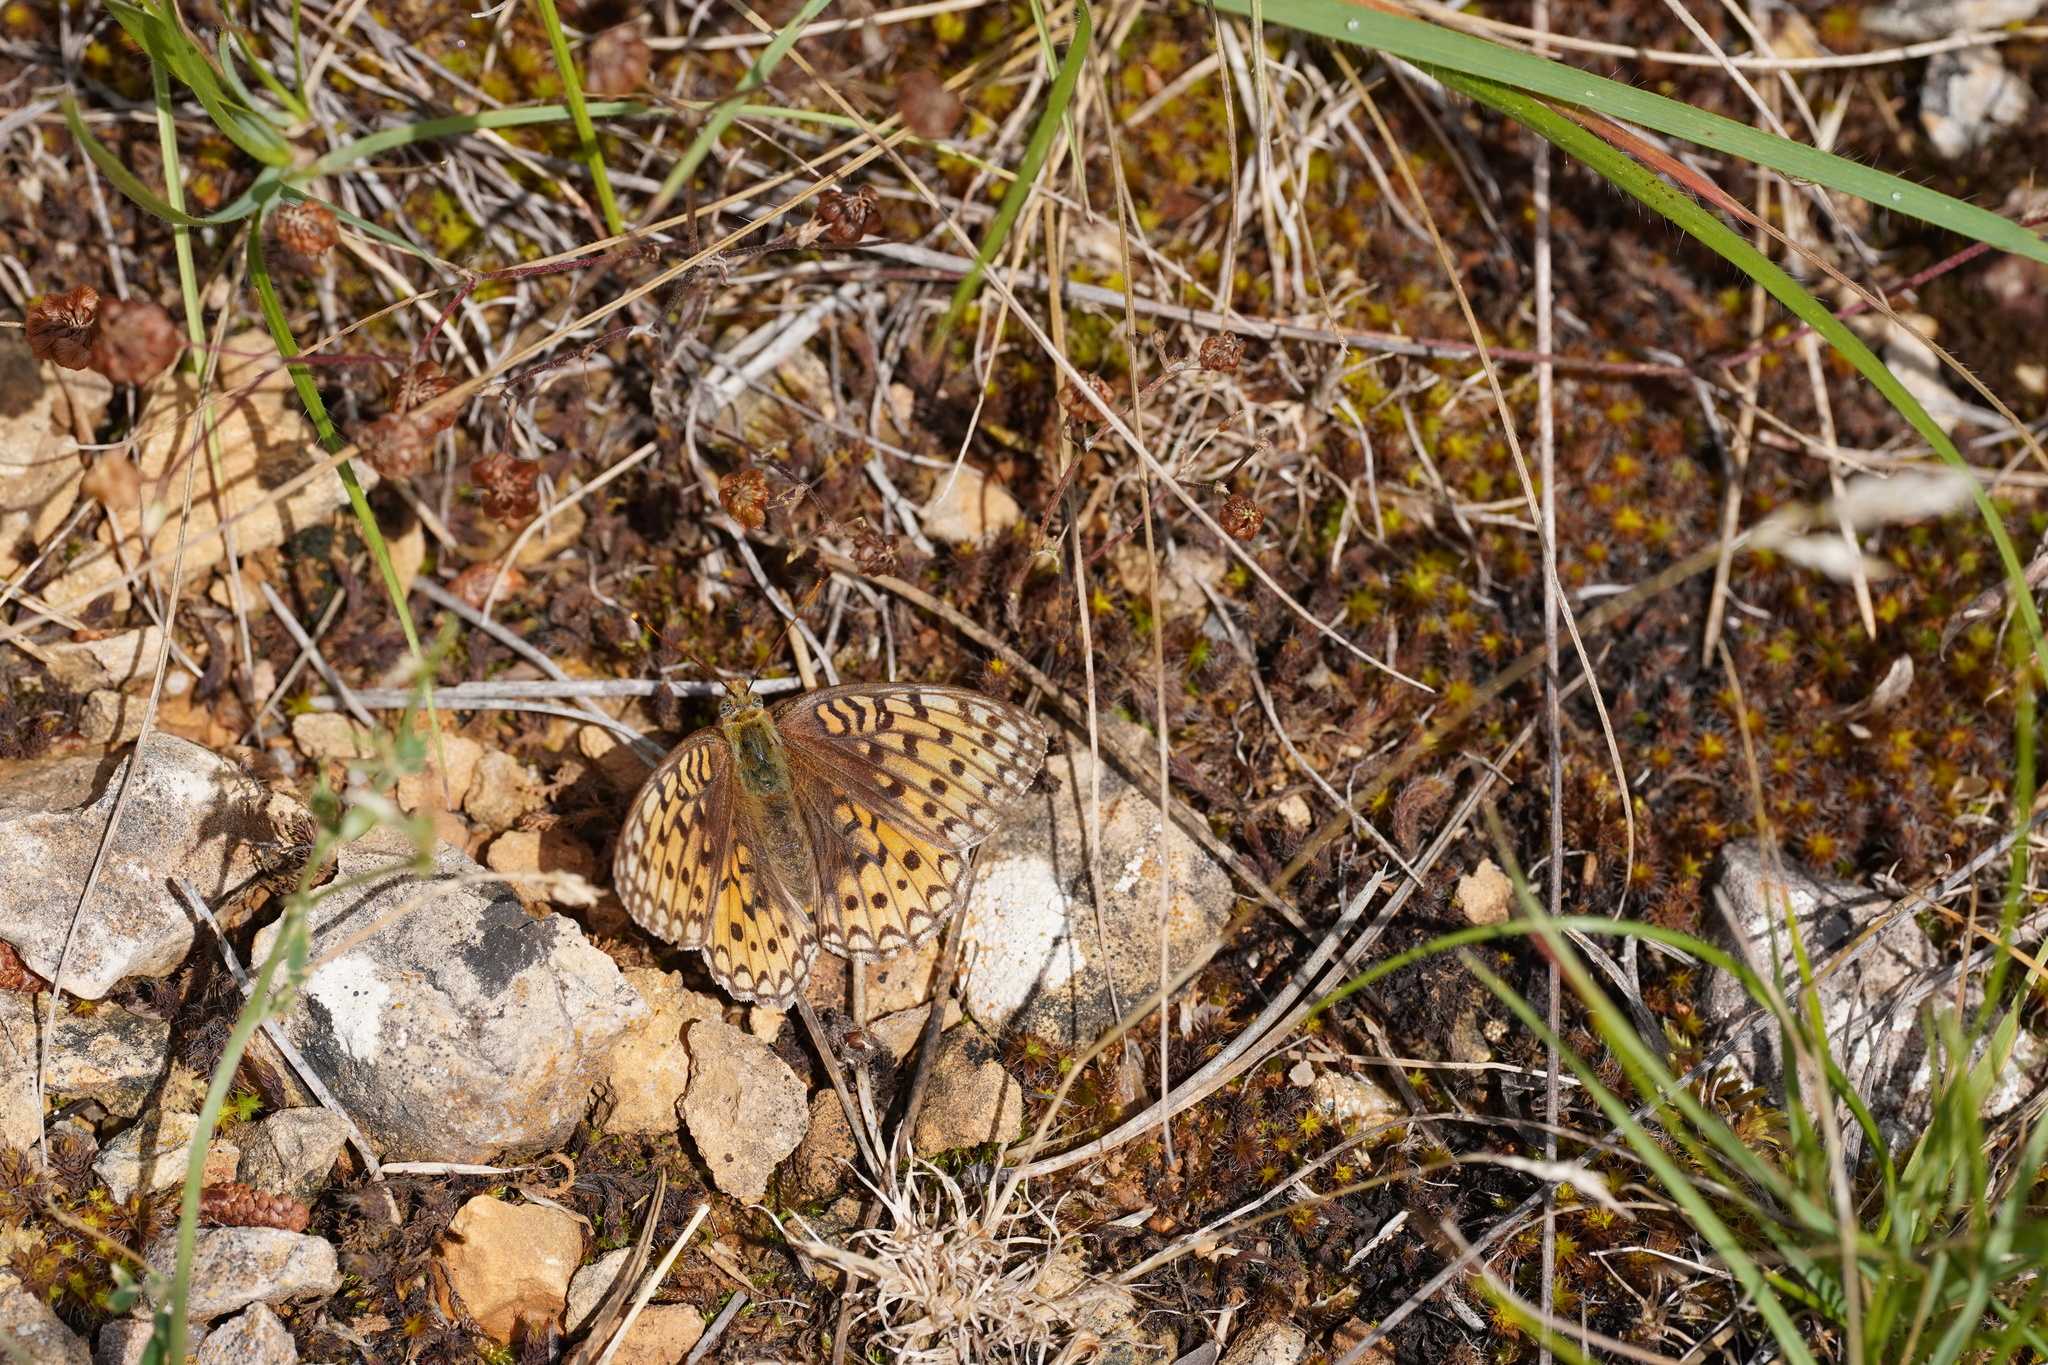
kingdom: Animalia
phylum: Arthropoda
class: Insecta
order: Lepidoptera
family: Nymphalidae
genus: Fabriciana
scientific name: Fabriciana niobe
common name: Niobe fritillary
